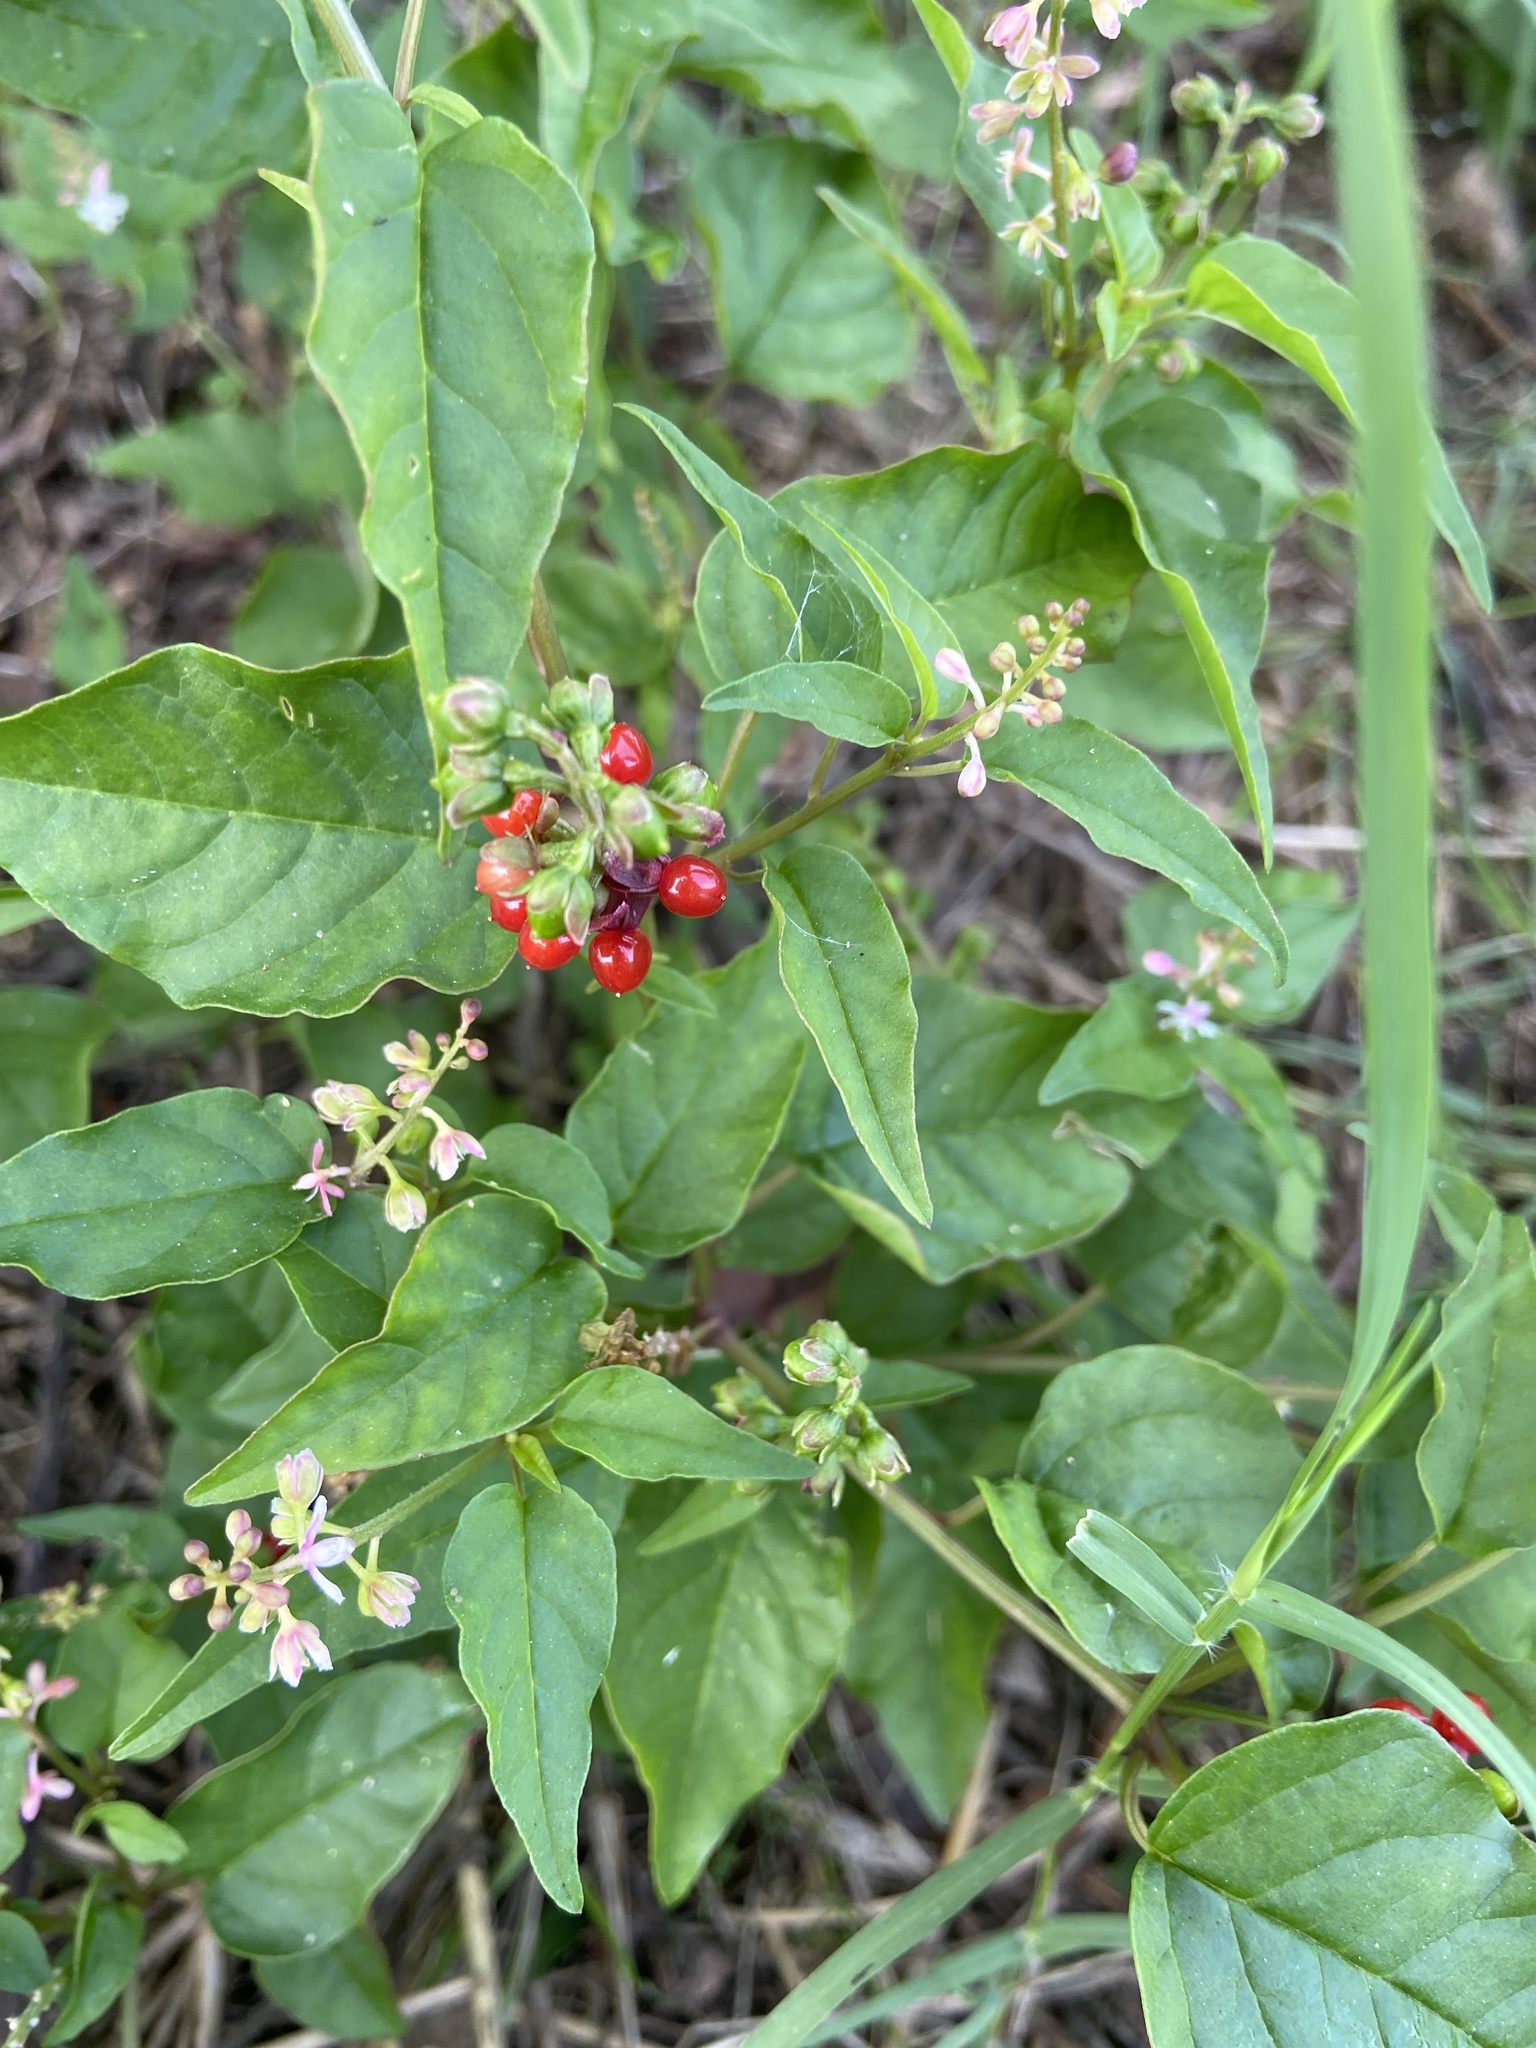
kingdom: Plantae
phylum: Tracheophyta
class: Magnoliopsida
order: Caryophyllales
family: Phytolaccaceae
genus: Rivina
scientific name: Rivina humilis
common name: Rougeplant
